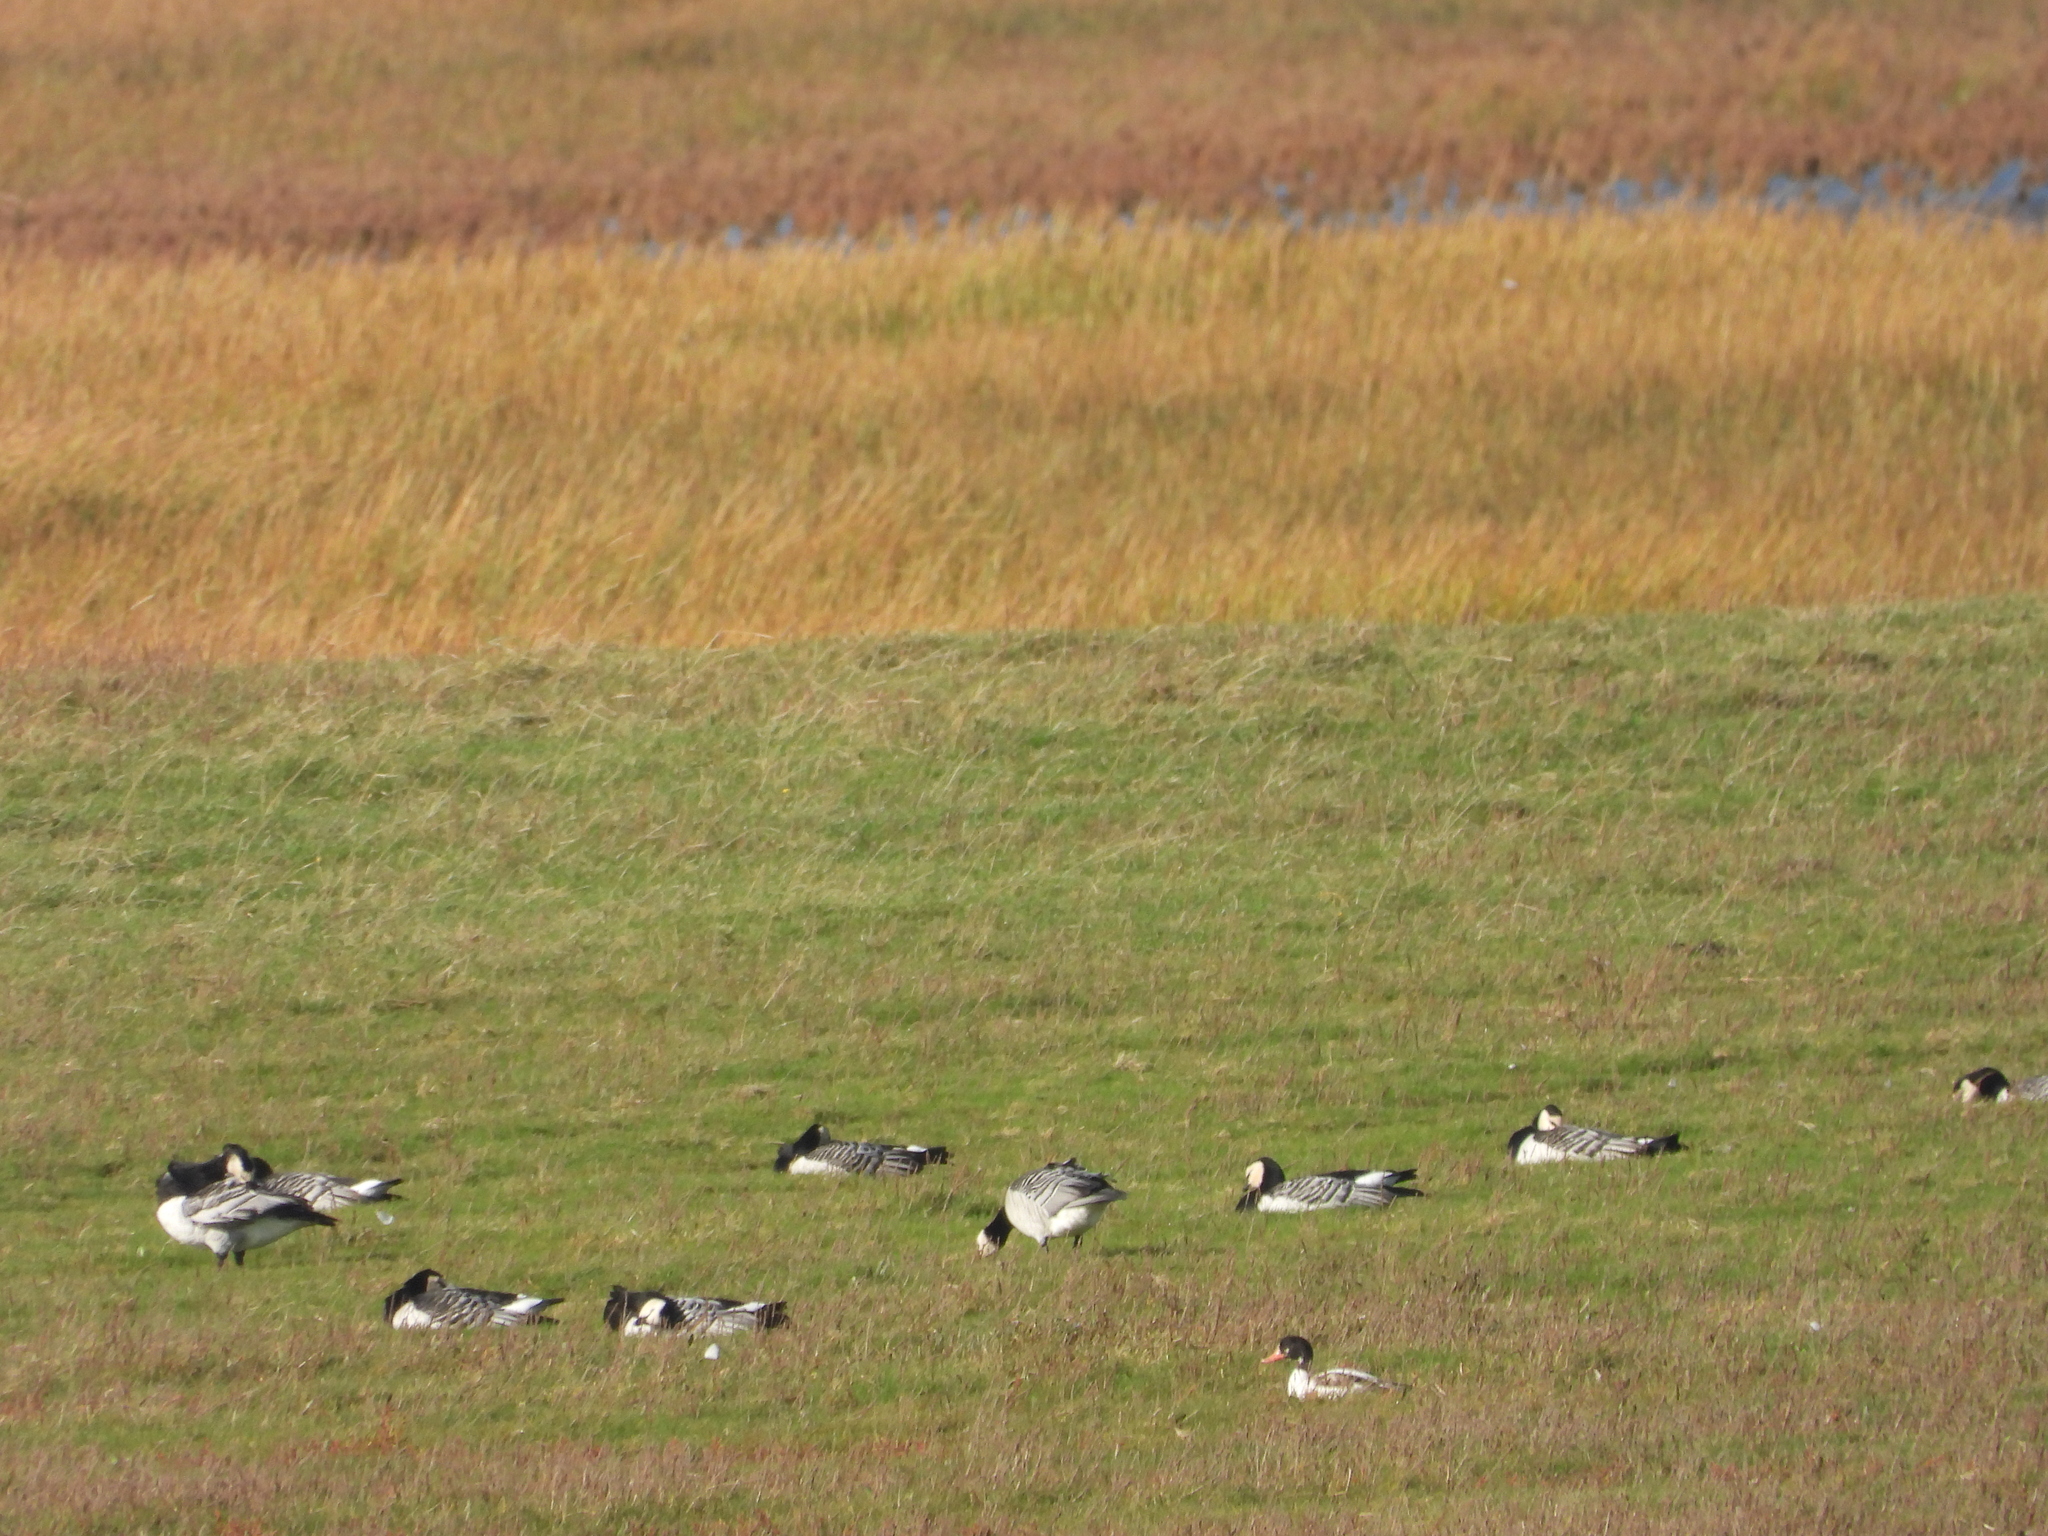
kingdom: Animalia
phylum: Chordata
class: Aves
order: Anseriformes
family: Anatidae
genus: Branta
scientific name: Branta leucopsis
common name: Barnacle goose
